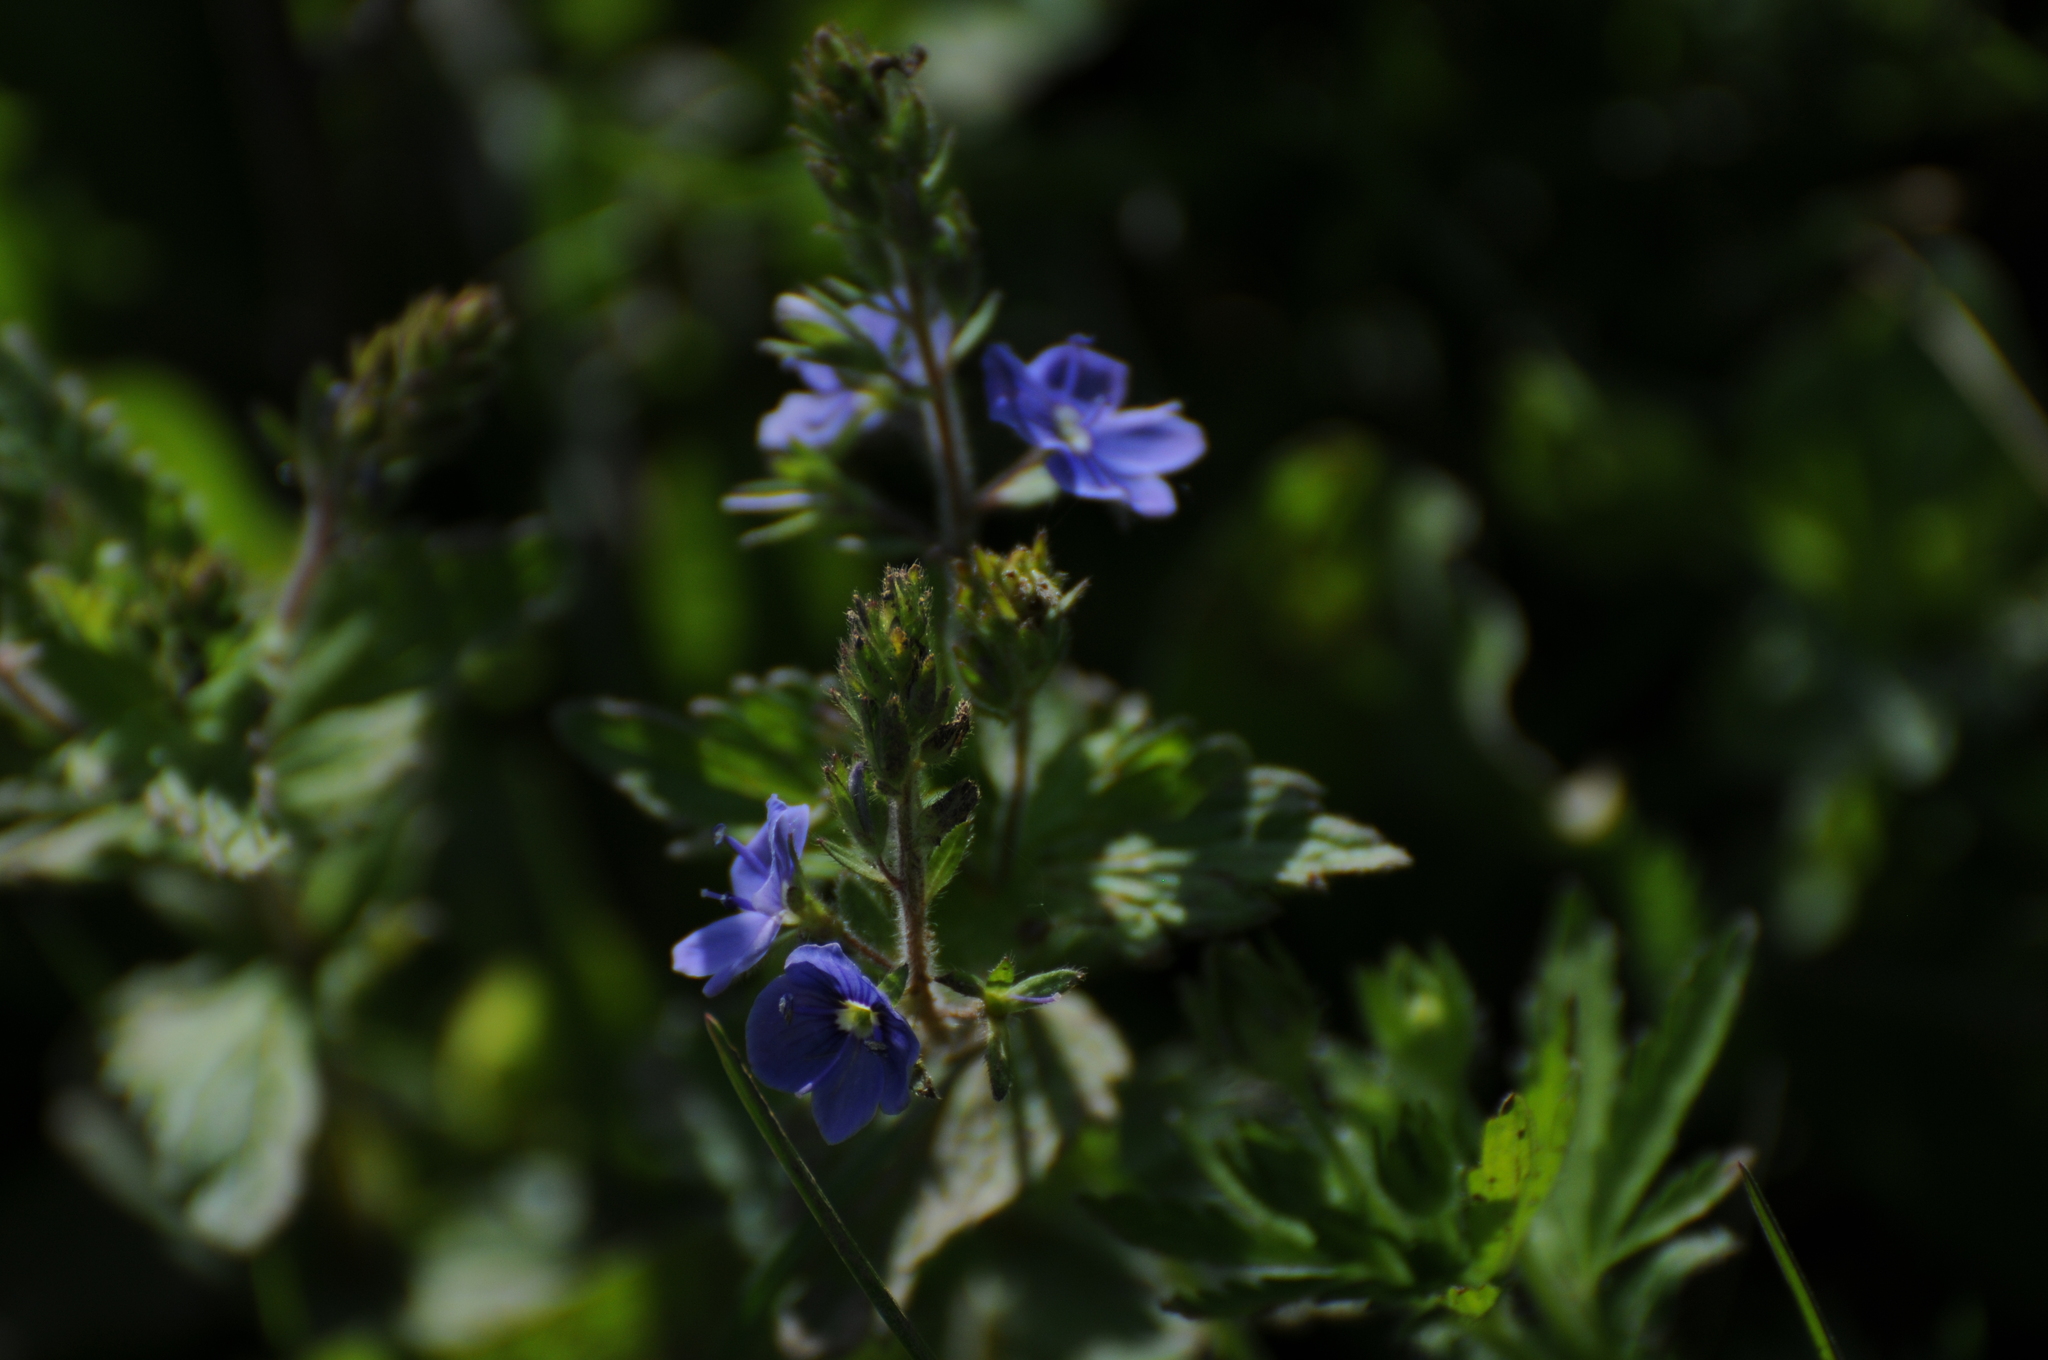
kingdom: Plantae
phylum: Tracheophyta
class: Magnoliopsida
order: Lamiales
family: Plantaginaceae
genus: Veronica
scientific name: Veronica chamaedrys
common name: Germander speedwell
